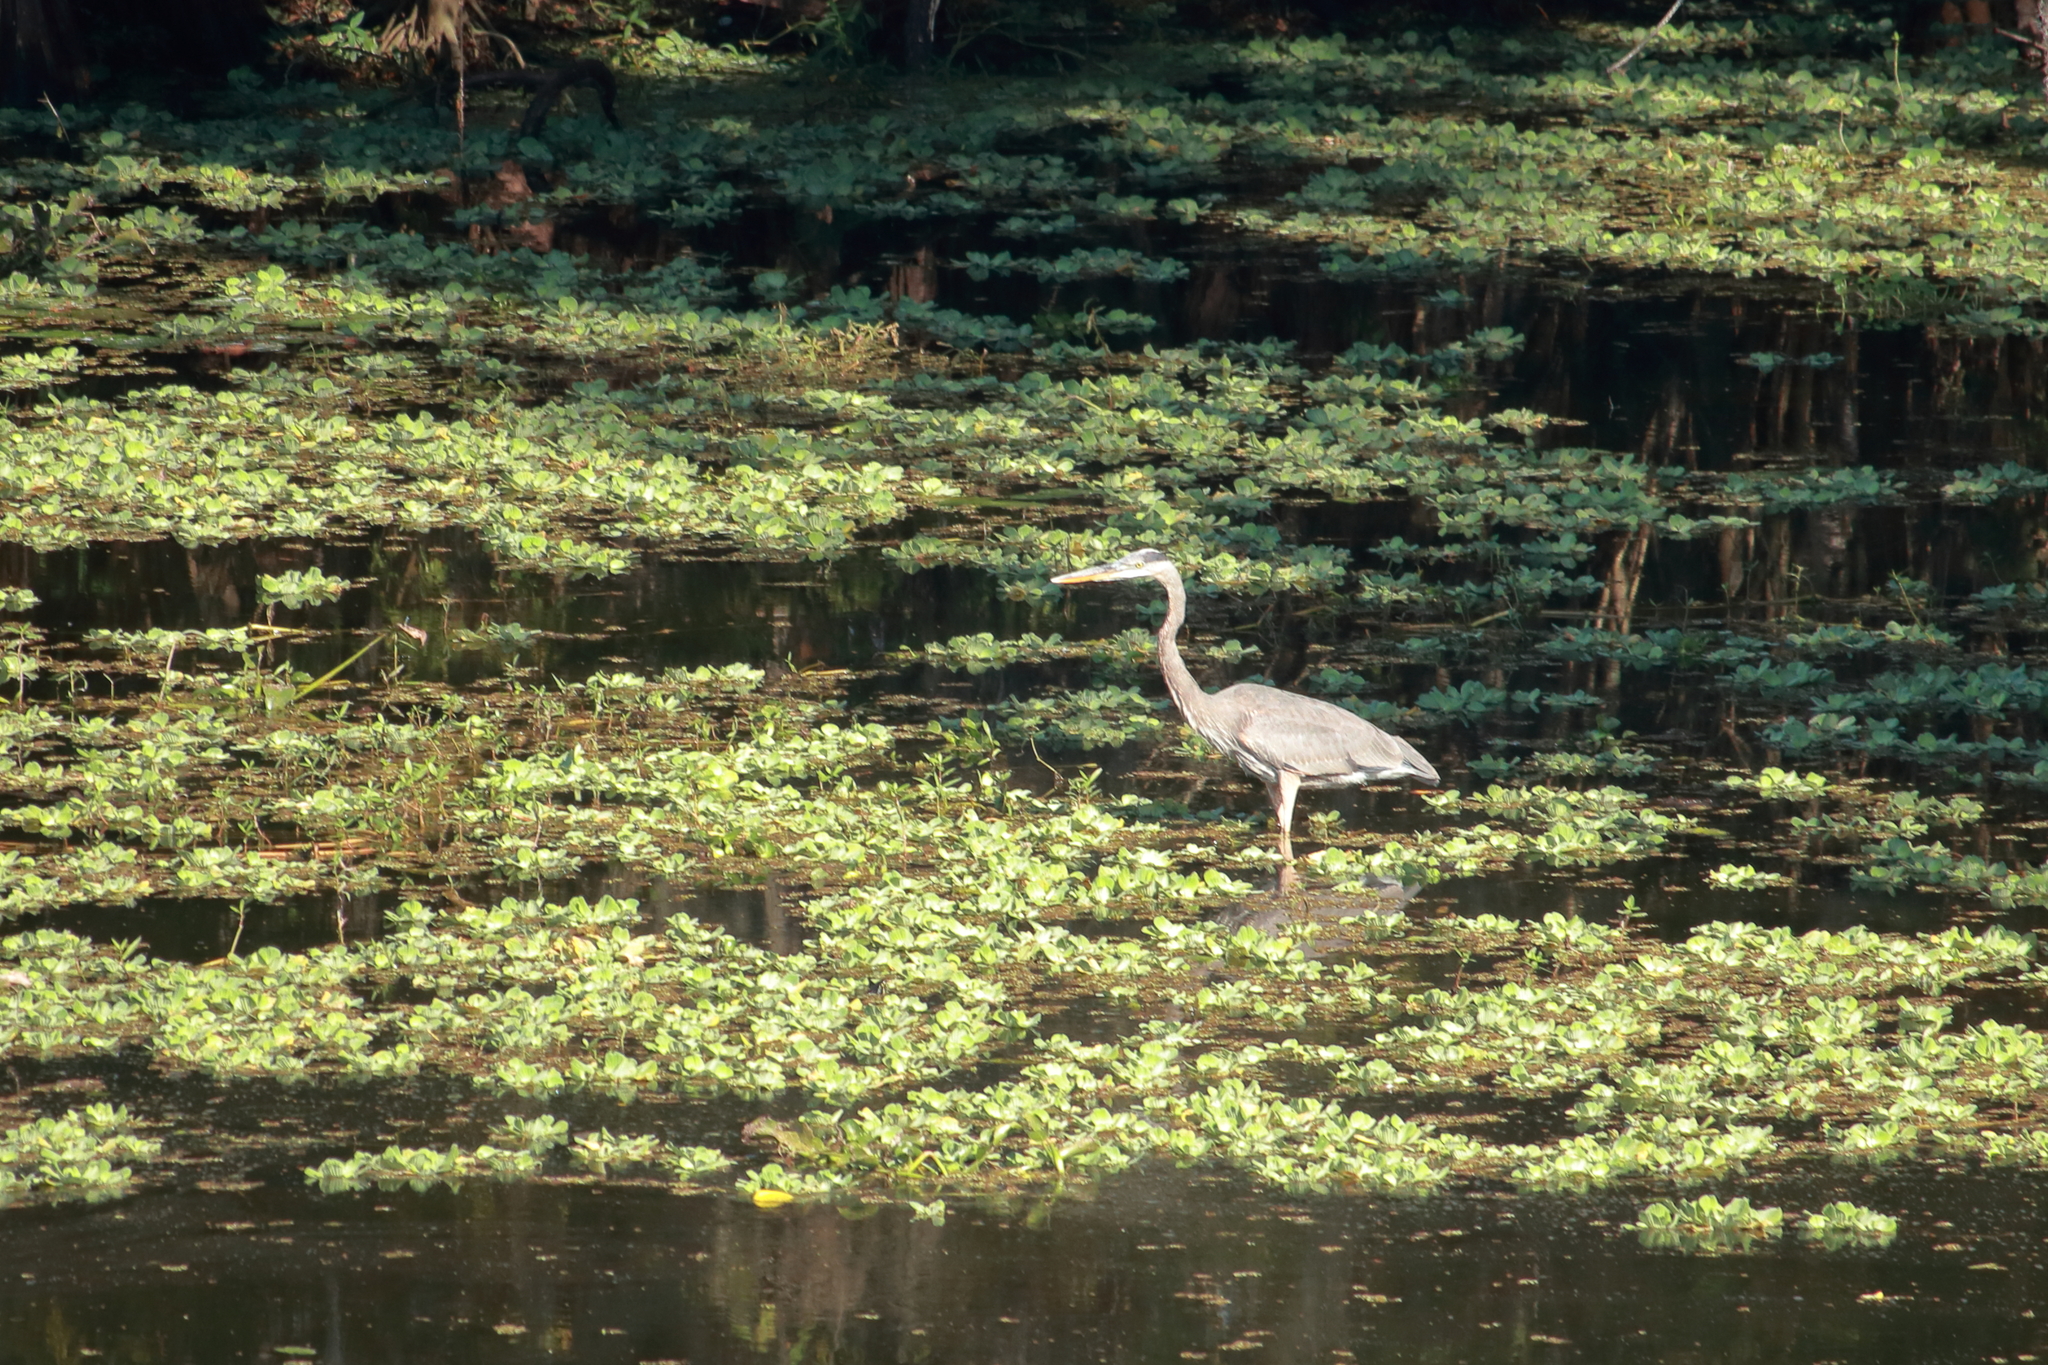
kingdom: Animalia
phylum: Chordata
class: Aves
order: Pelecaniformes
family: Ardeidae
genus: Ardea
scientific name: Ardea herodias
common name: Great blue heron
